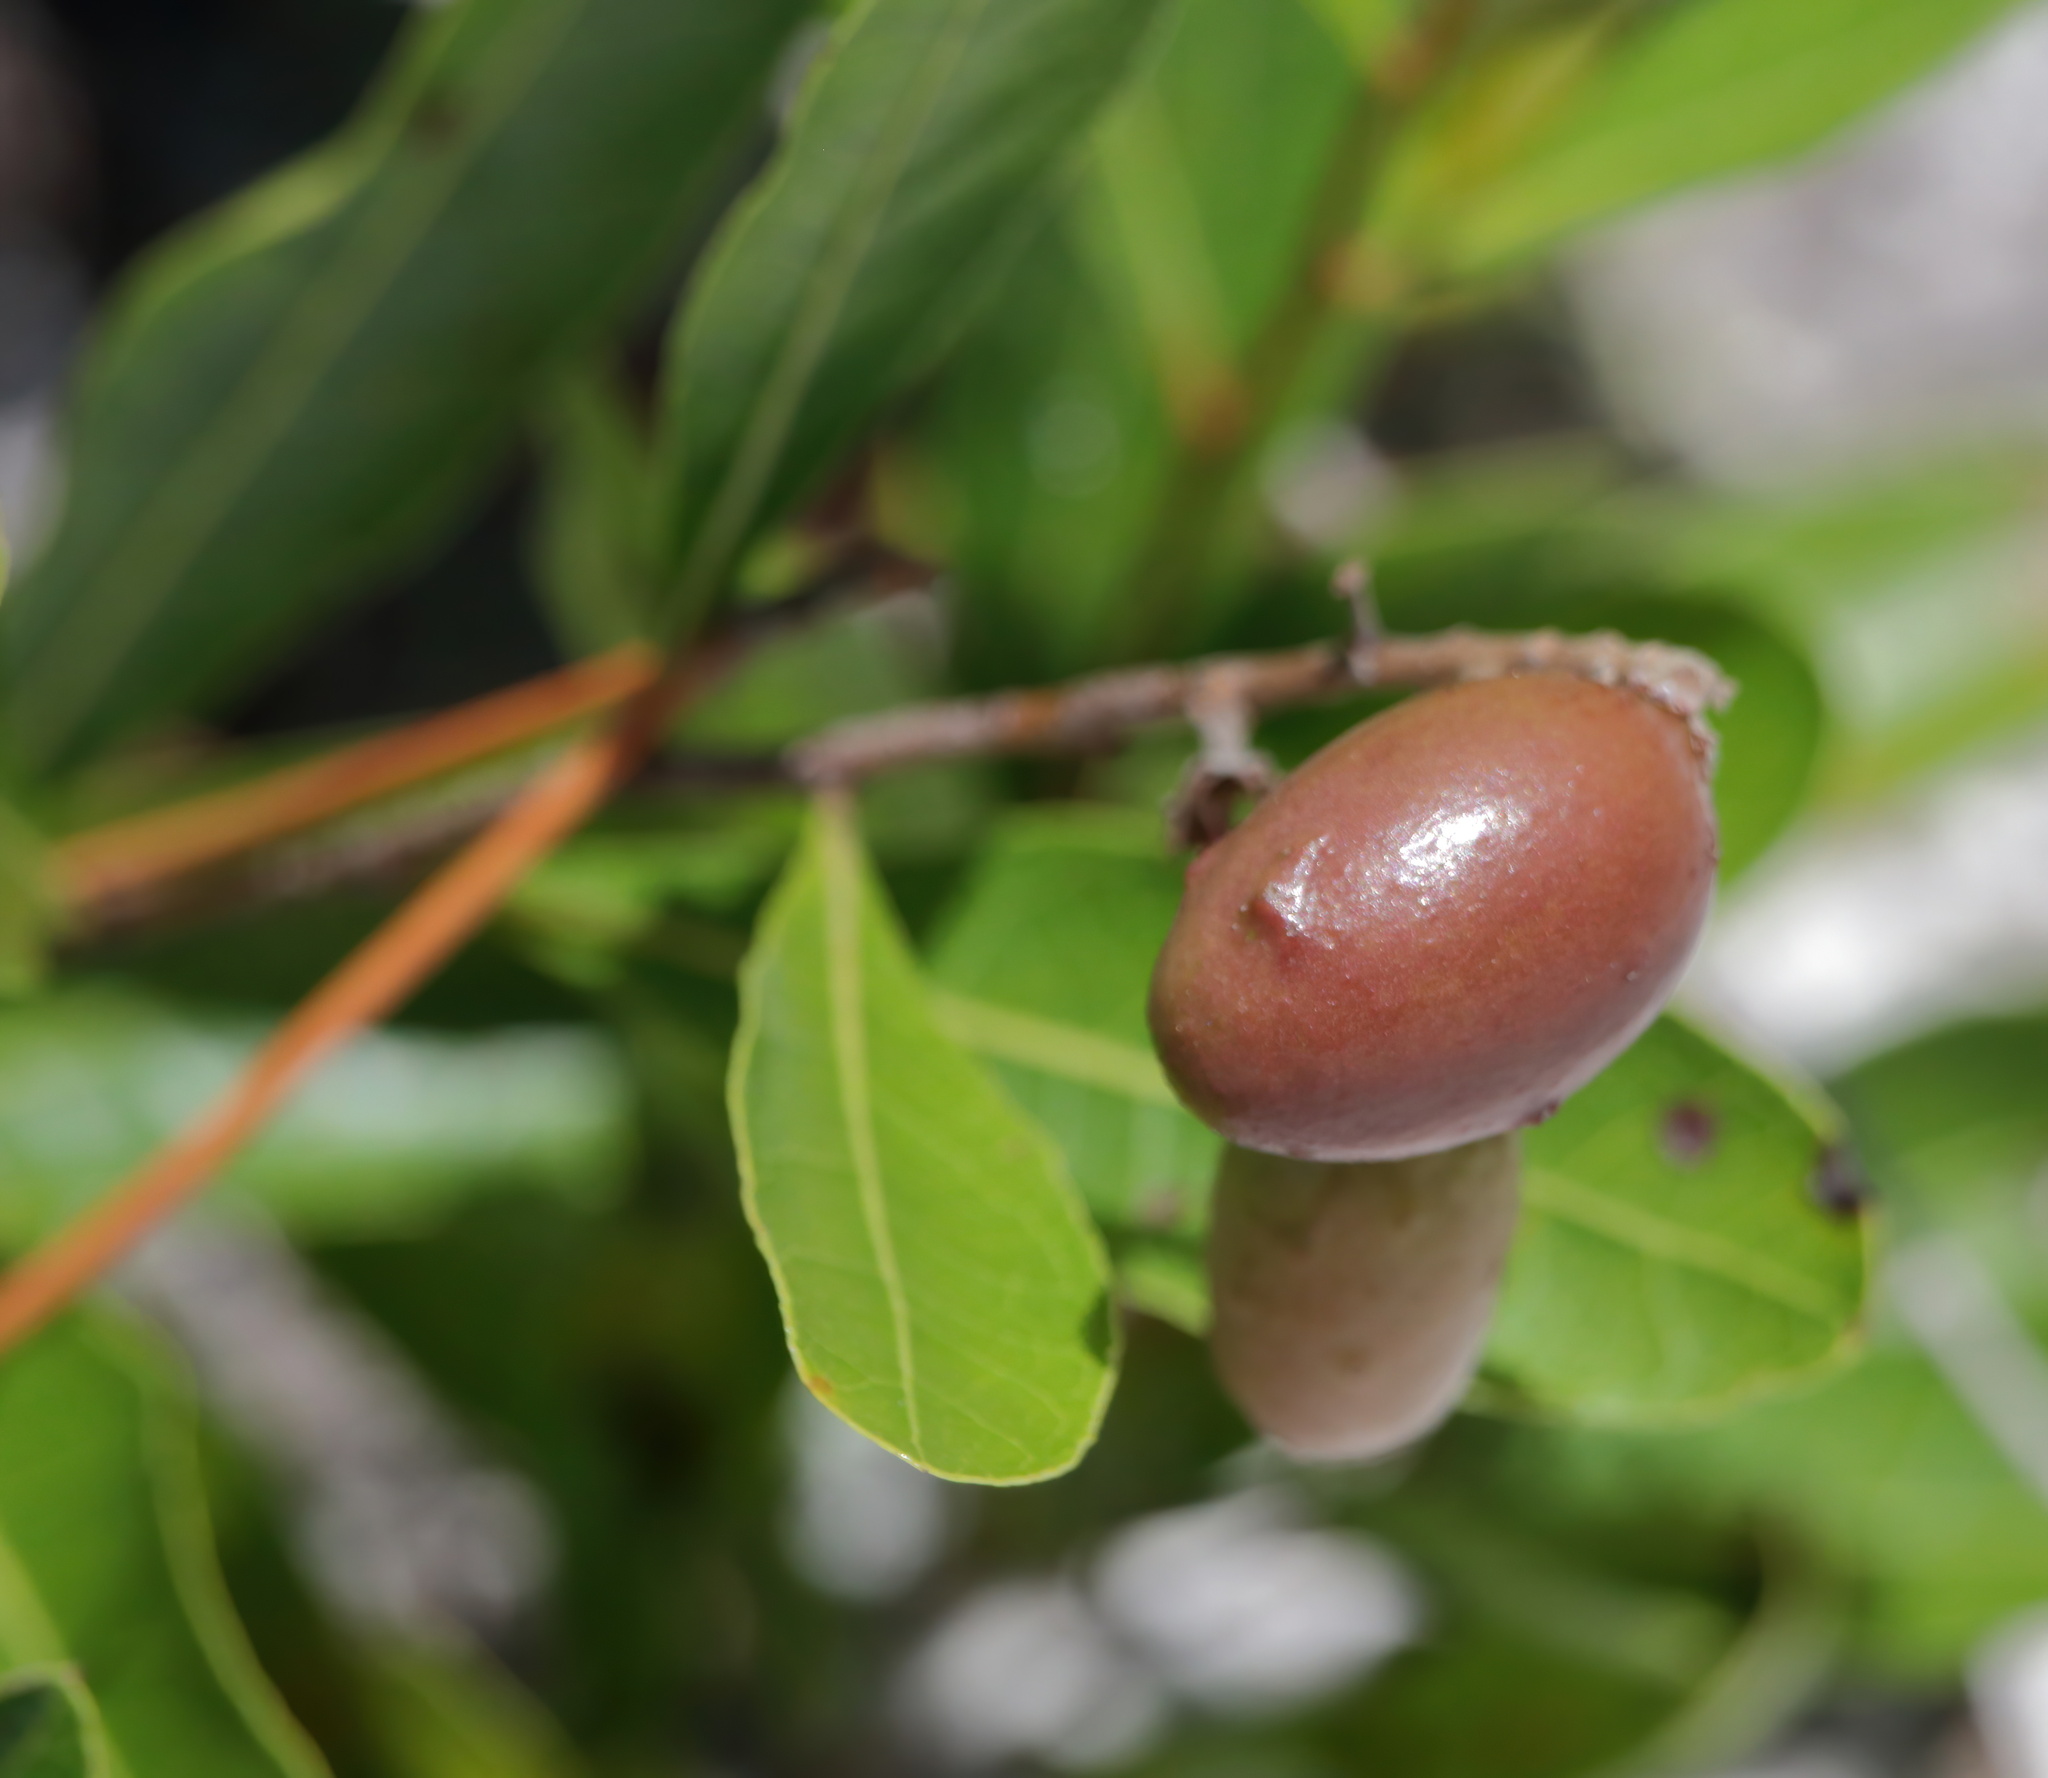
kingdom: Plantae
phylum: Tracheophyta
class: Magnoliopsida
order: Malpighiales
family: Chrysobalanaceae
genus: Geobalanus
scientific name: Geobalanus oblongifolius
